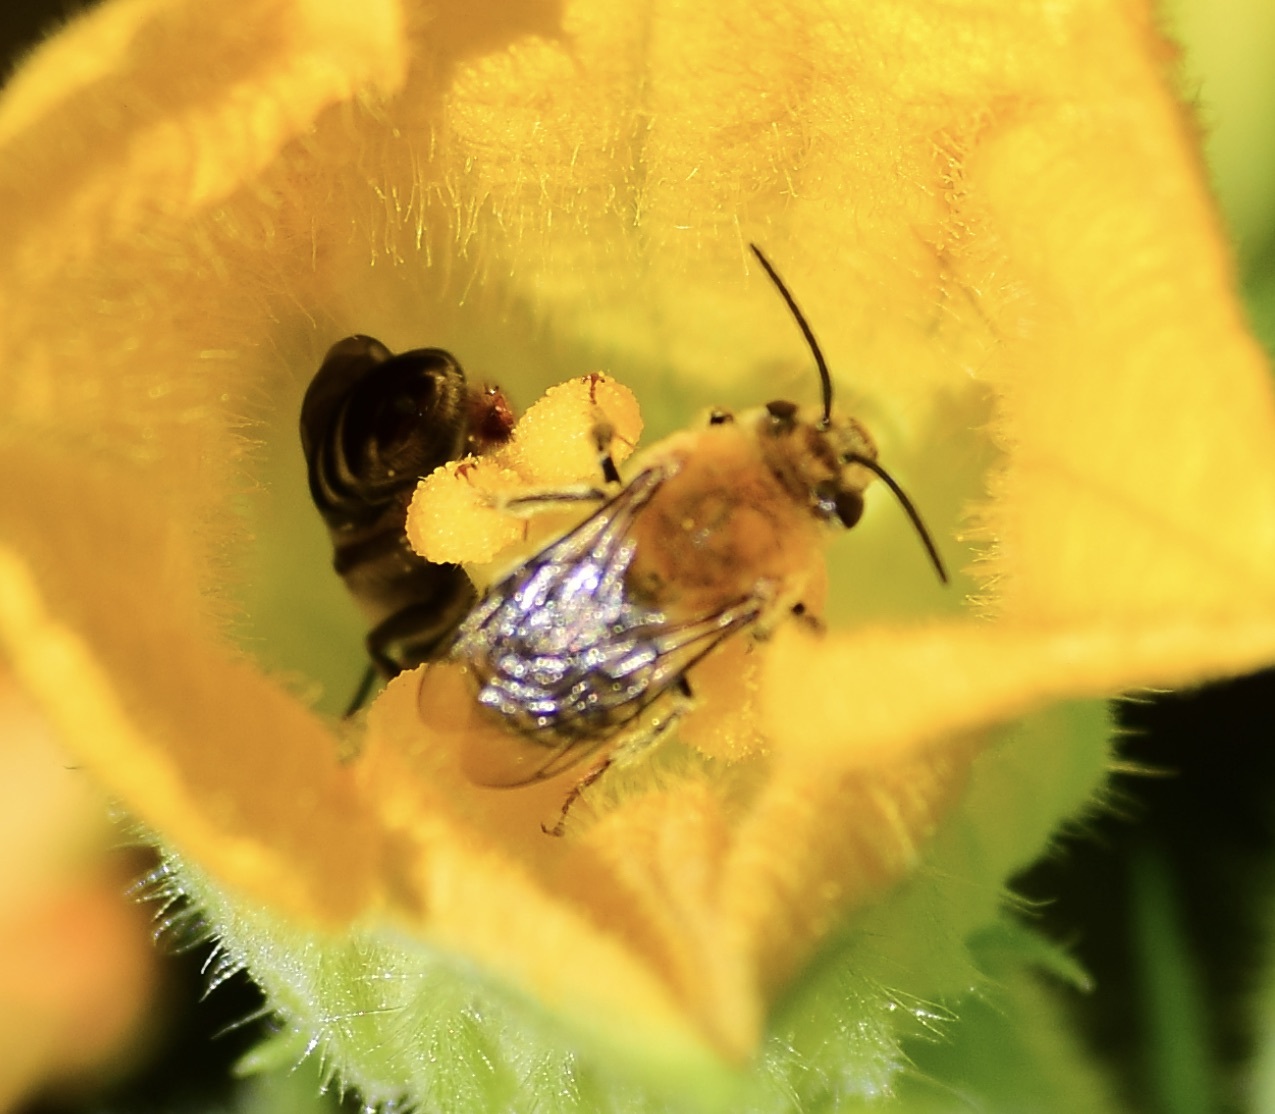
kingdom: Animalia
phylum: Arthropoda
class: Insecta
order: Hymenoptera
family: Apidae
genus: Peponapis
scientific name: Peponapis pruinosa
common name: Pruinose squash bee
